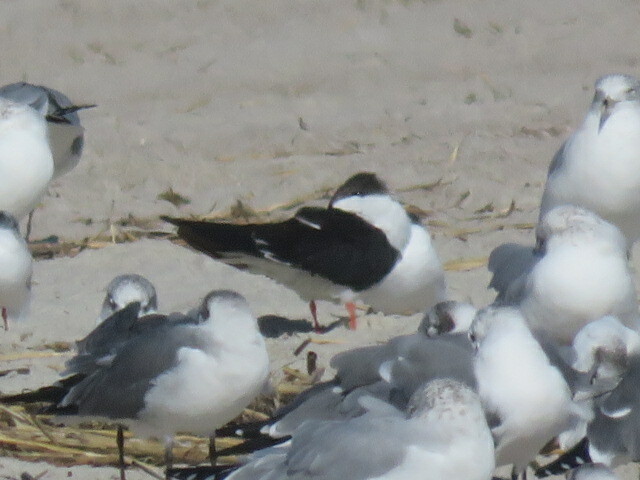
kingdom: Animalia
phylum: Chordata
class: Aves
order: Charadriiformes
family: Laridae
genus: Rynchops
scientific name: Rynchops niger
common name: Black skimmer
